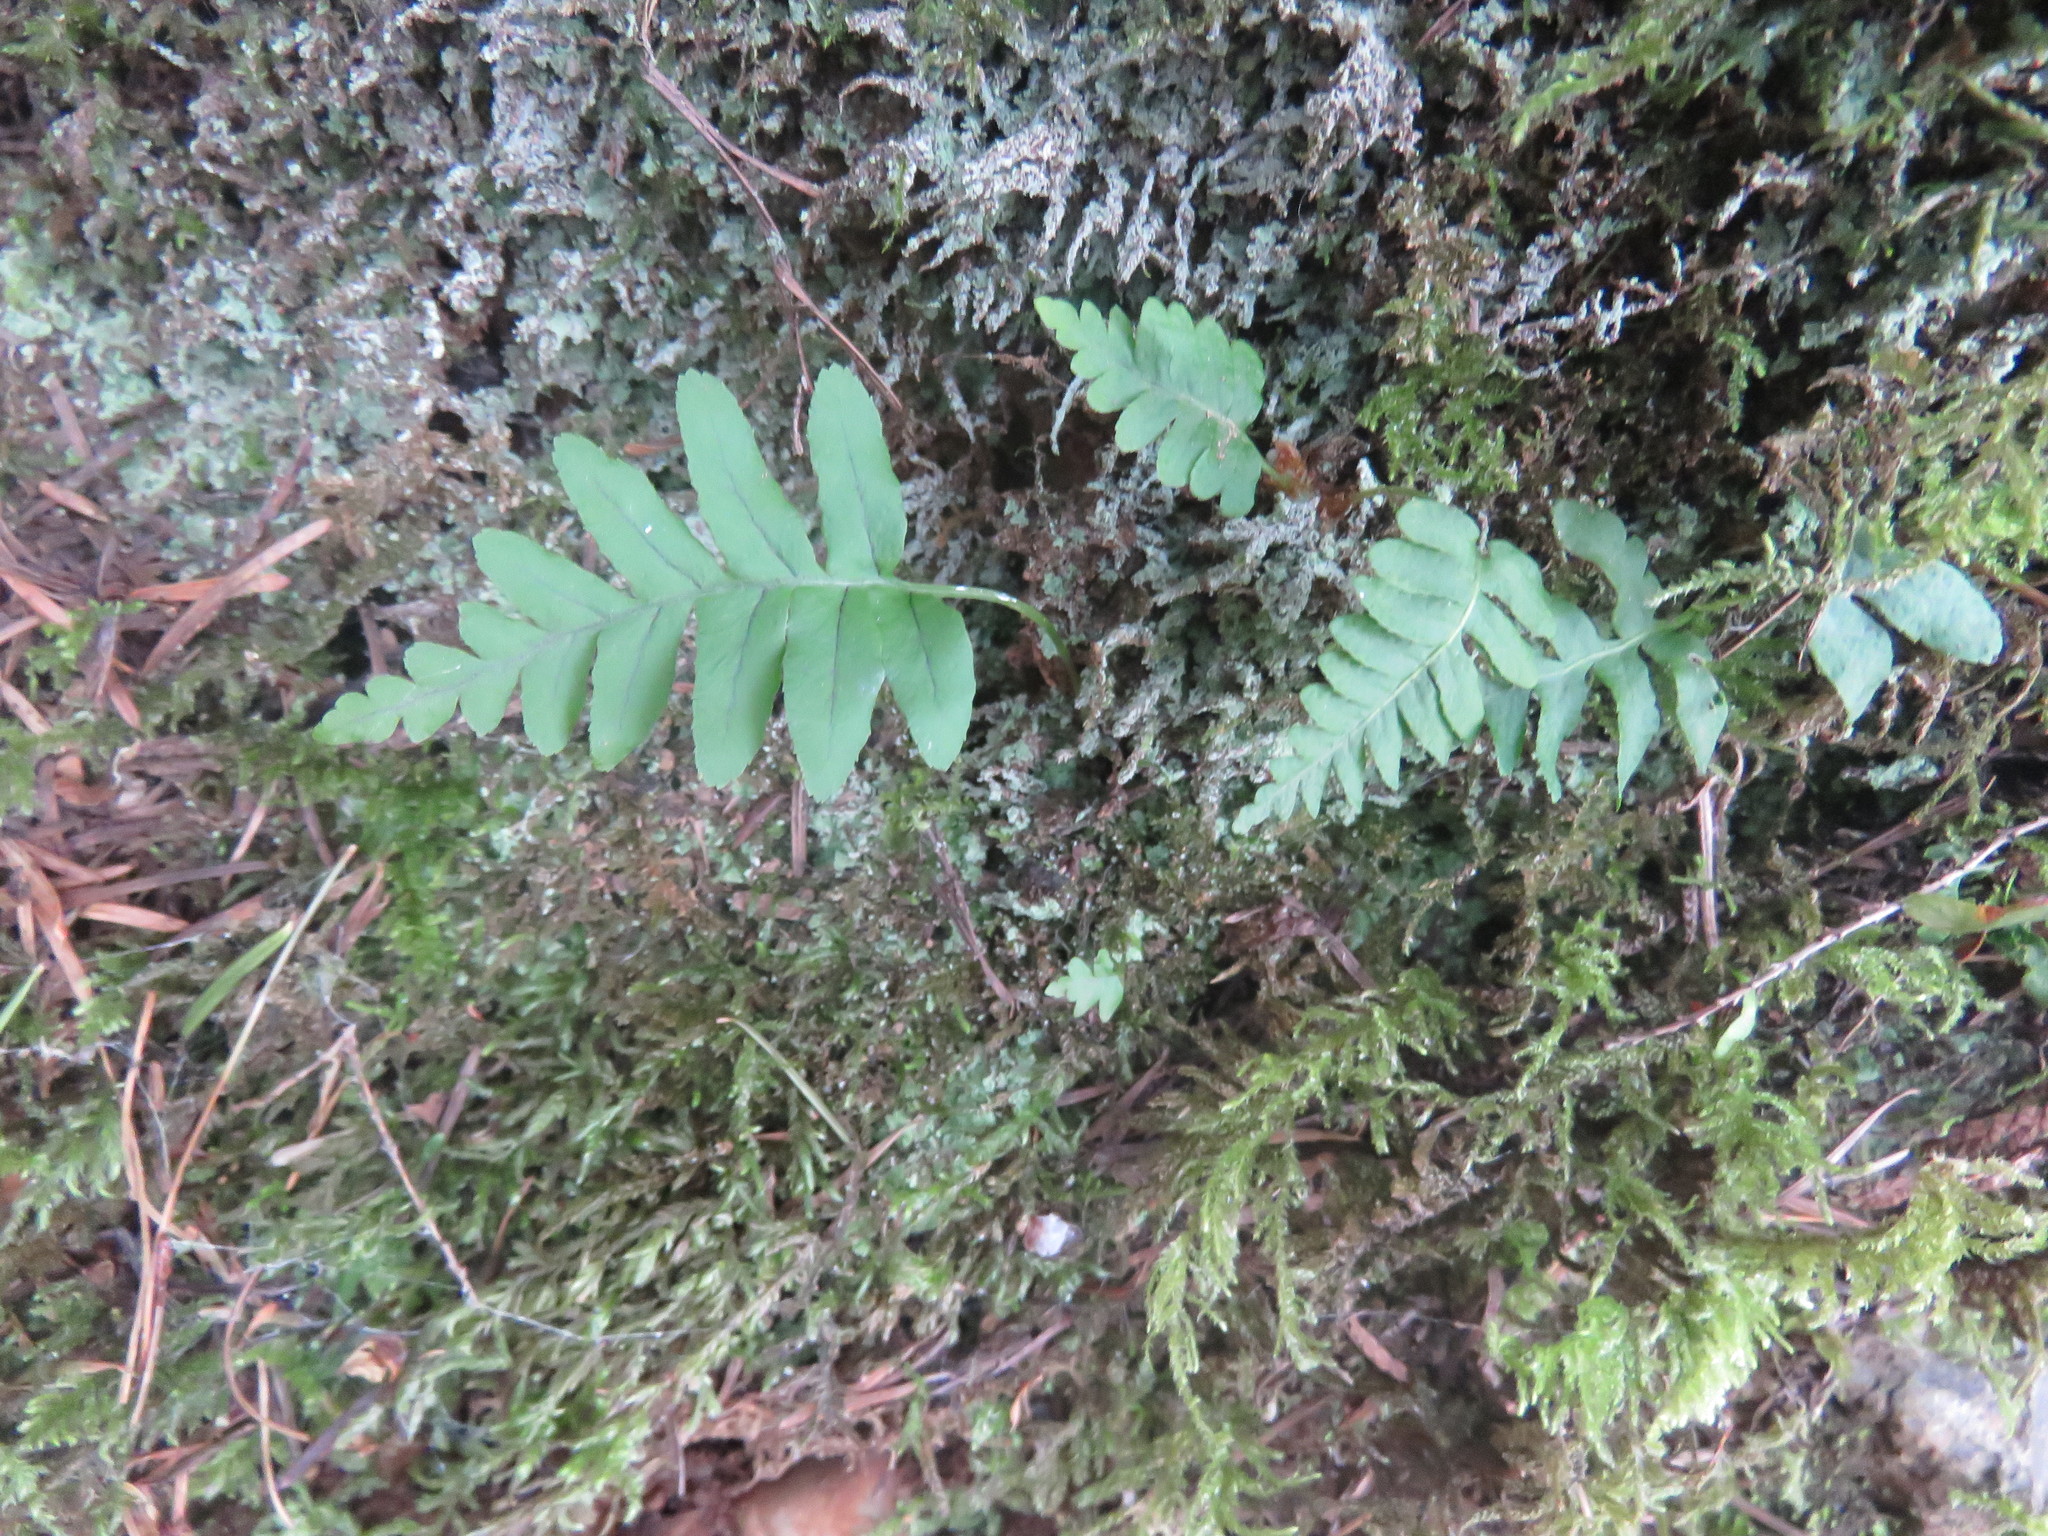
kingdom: Plantae
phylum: Tracheophyta
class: Polypodiopsida
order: Polypodiales
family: Polypodiaceae
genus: Polypodium
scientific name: Polypodium glycyrrhiza
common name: Licorice fern
